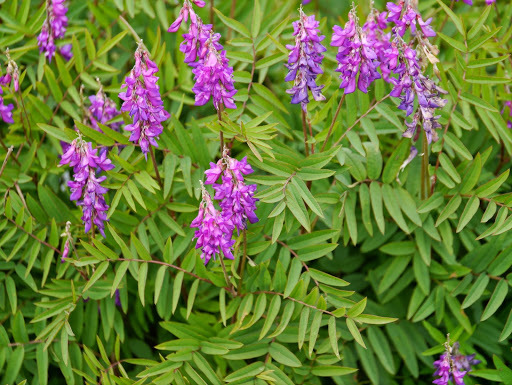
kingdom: Plantae
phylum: Tracheophyta
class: Magnoliopsida
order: Fabales
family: Fabaceae
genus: Hedysarum
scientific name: Hedysarum alpinum
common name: Alpine sweet-vetch
